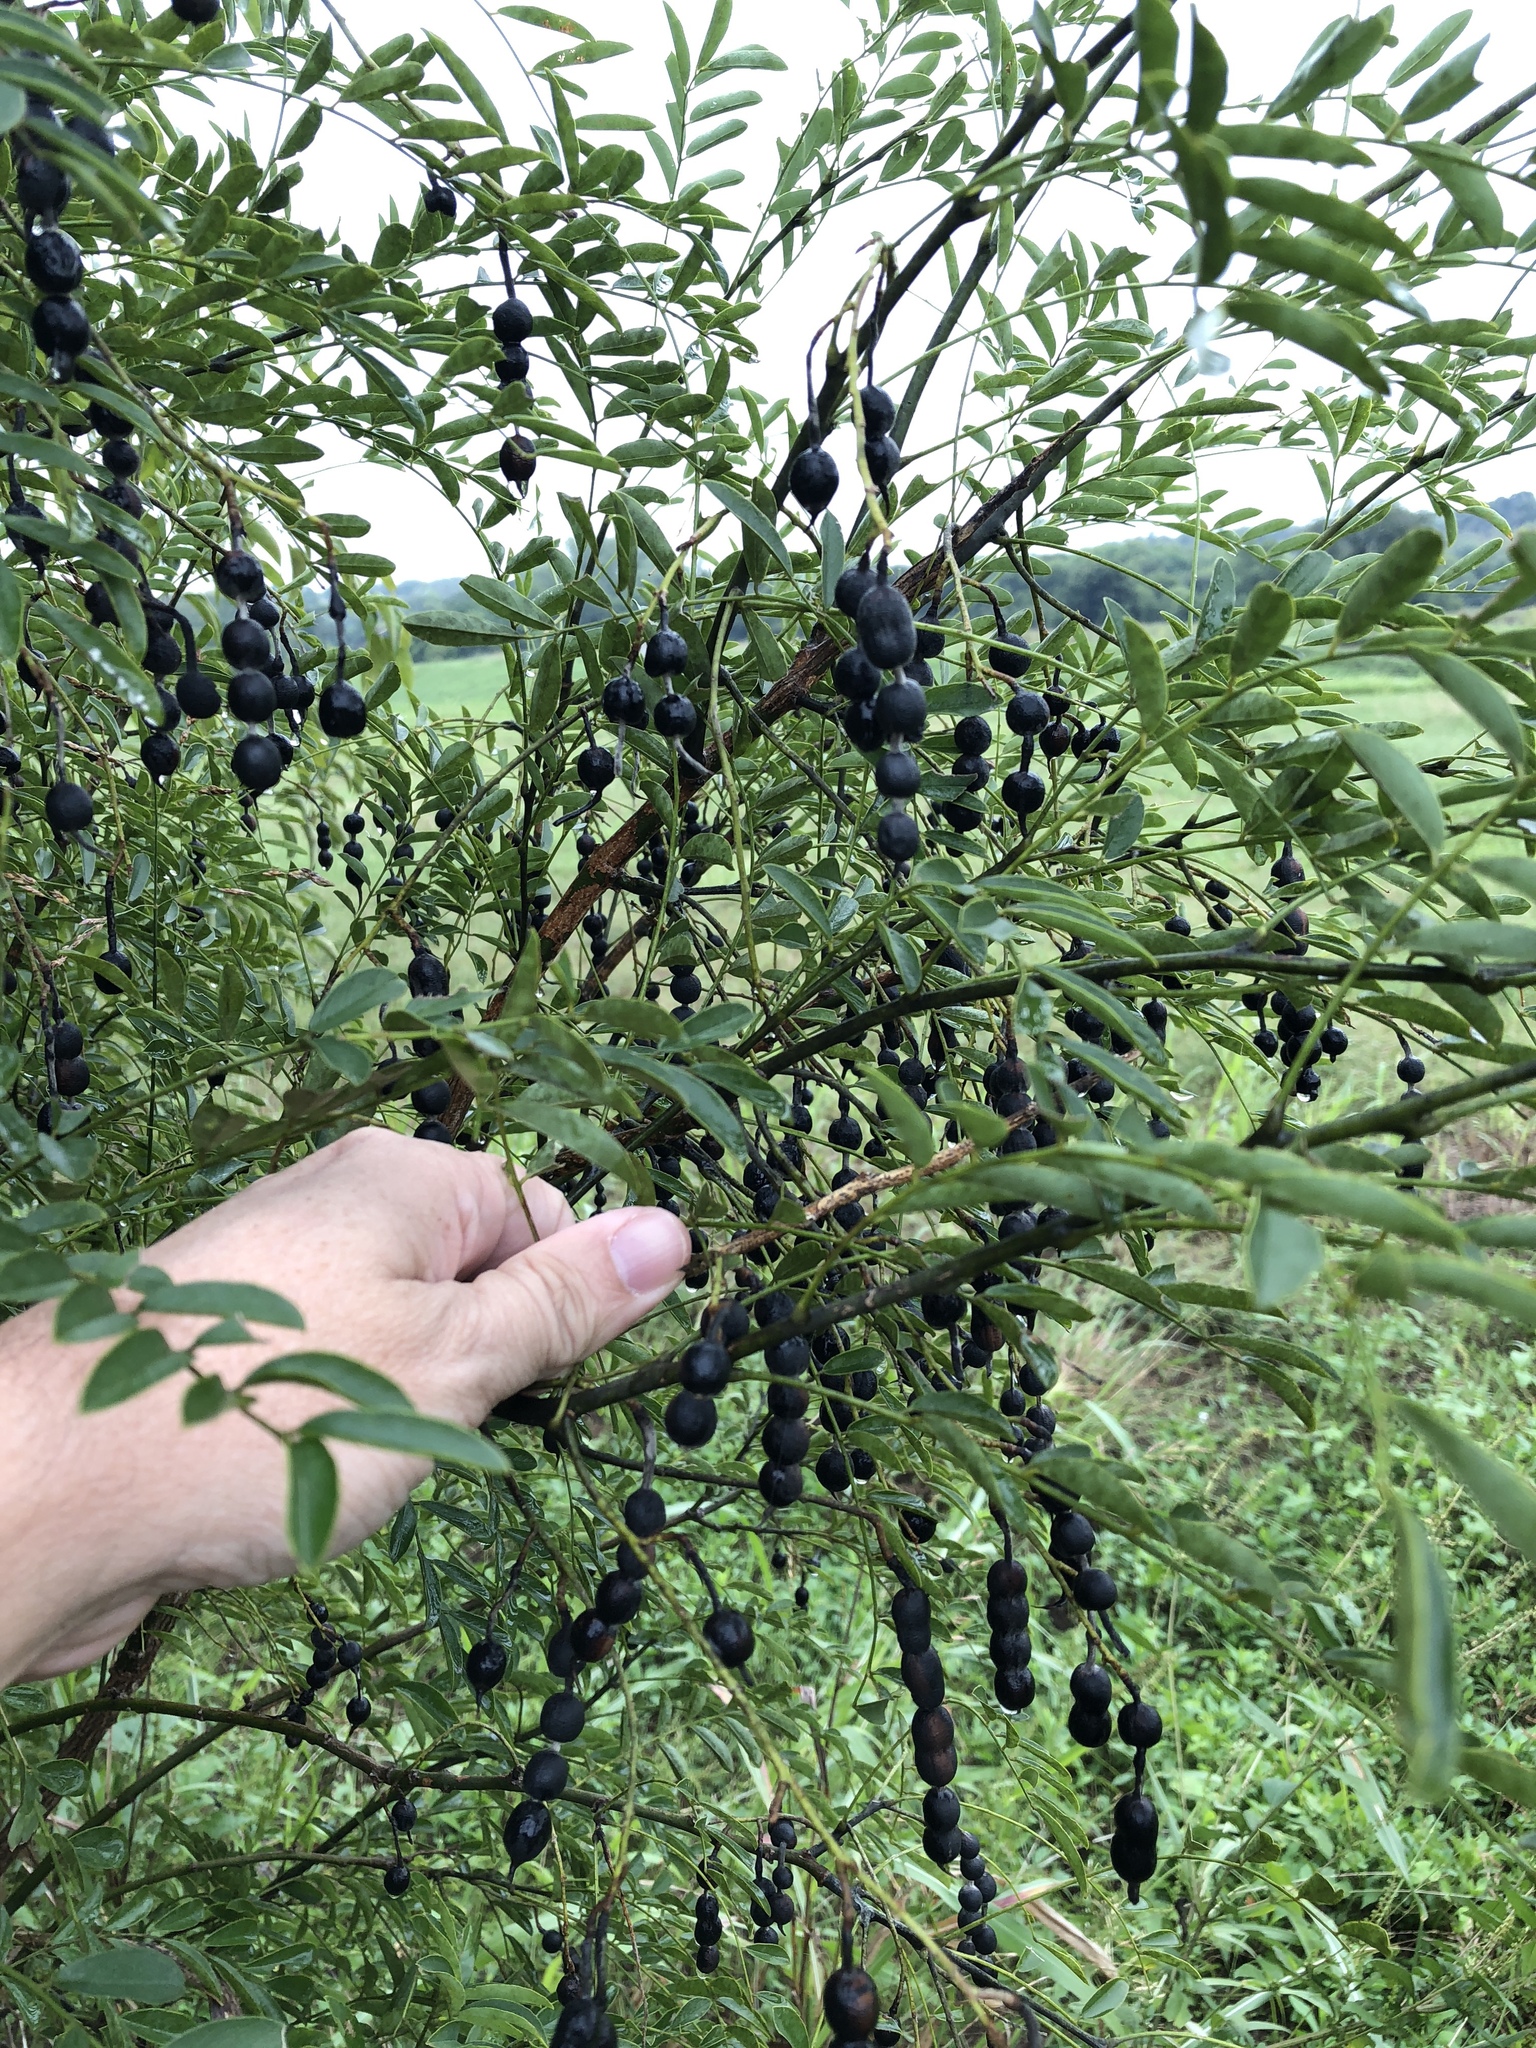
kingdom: Plantae
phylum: Tracheophyta
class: Magnoliopsida
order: Fabales
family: Fabaceae
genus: Styphnolobium
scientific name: Styphnolobium affine
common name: Texas sophora
